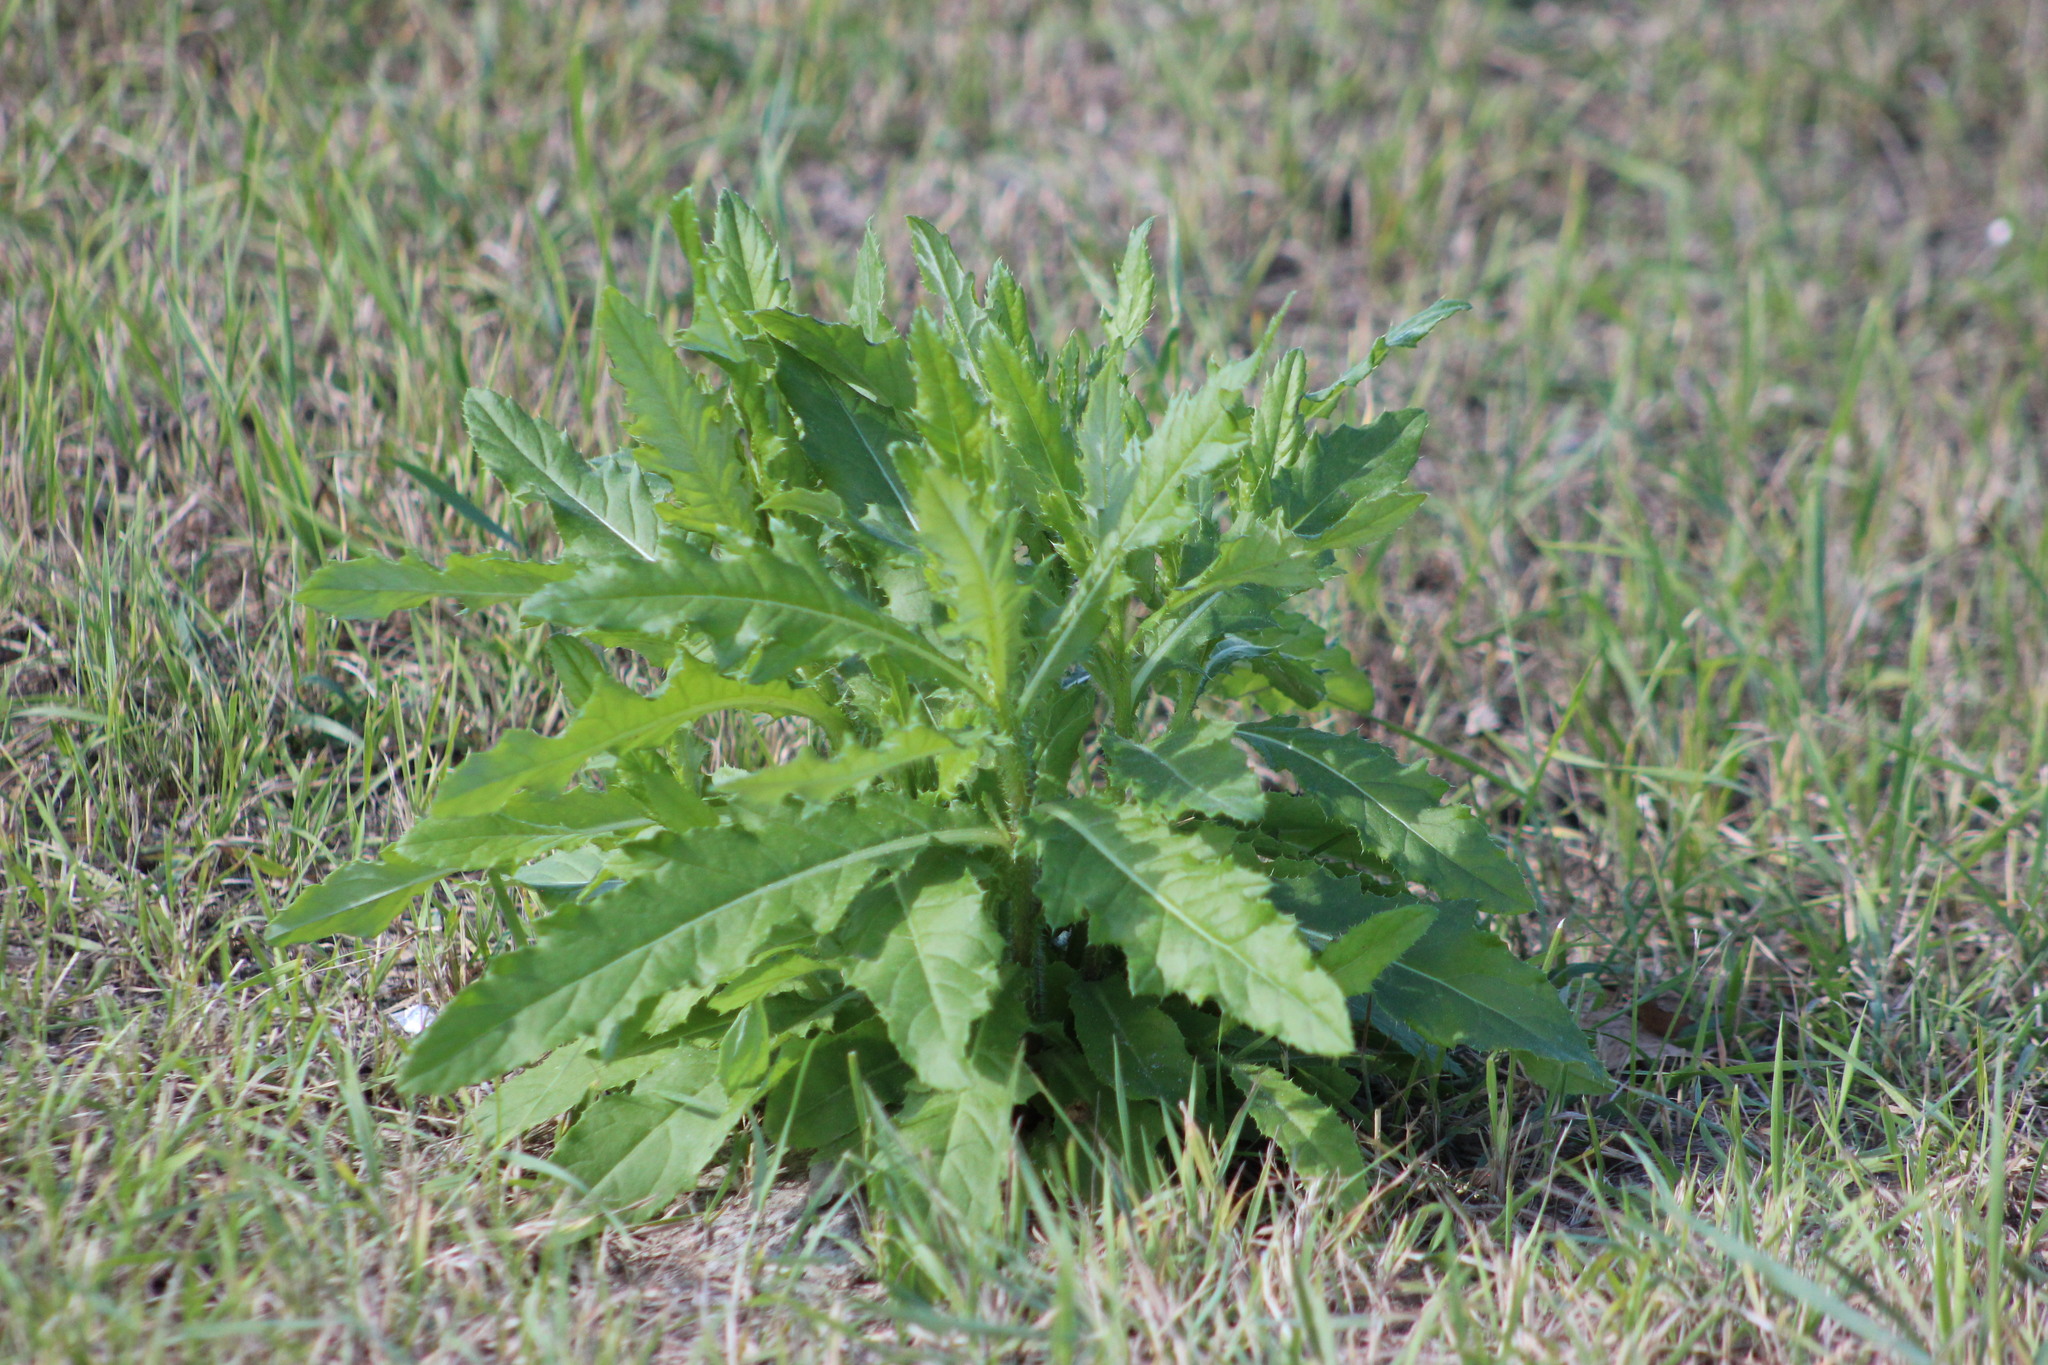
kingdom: Plantae
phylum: Tracheophyta
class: Magnoliopsida
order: Asterales
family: Asteraceae
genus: Cirsium
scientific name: Cirsium arvense
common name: Creeping thistle
